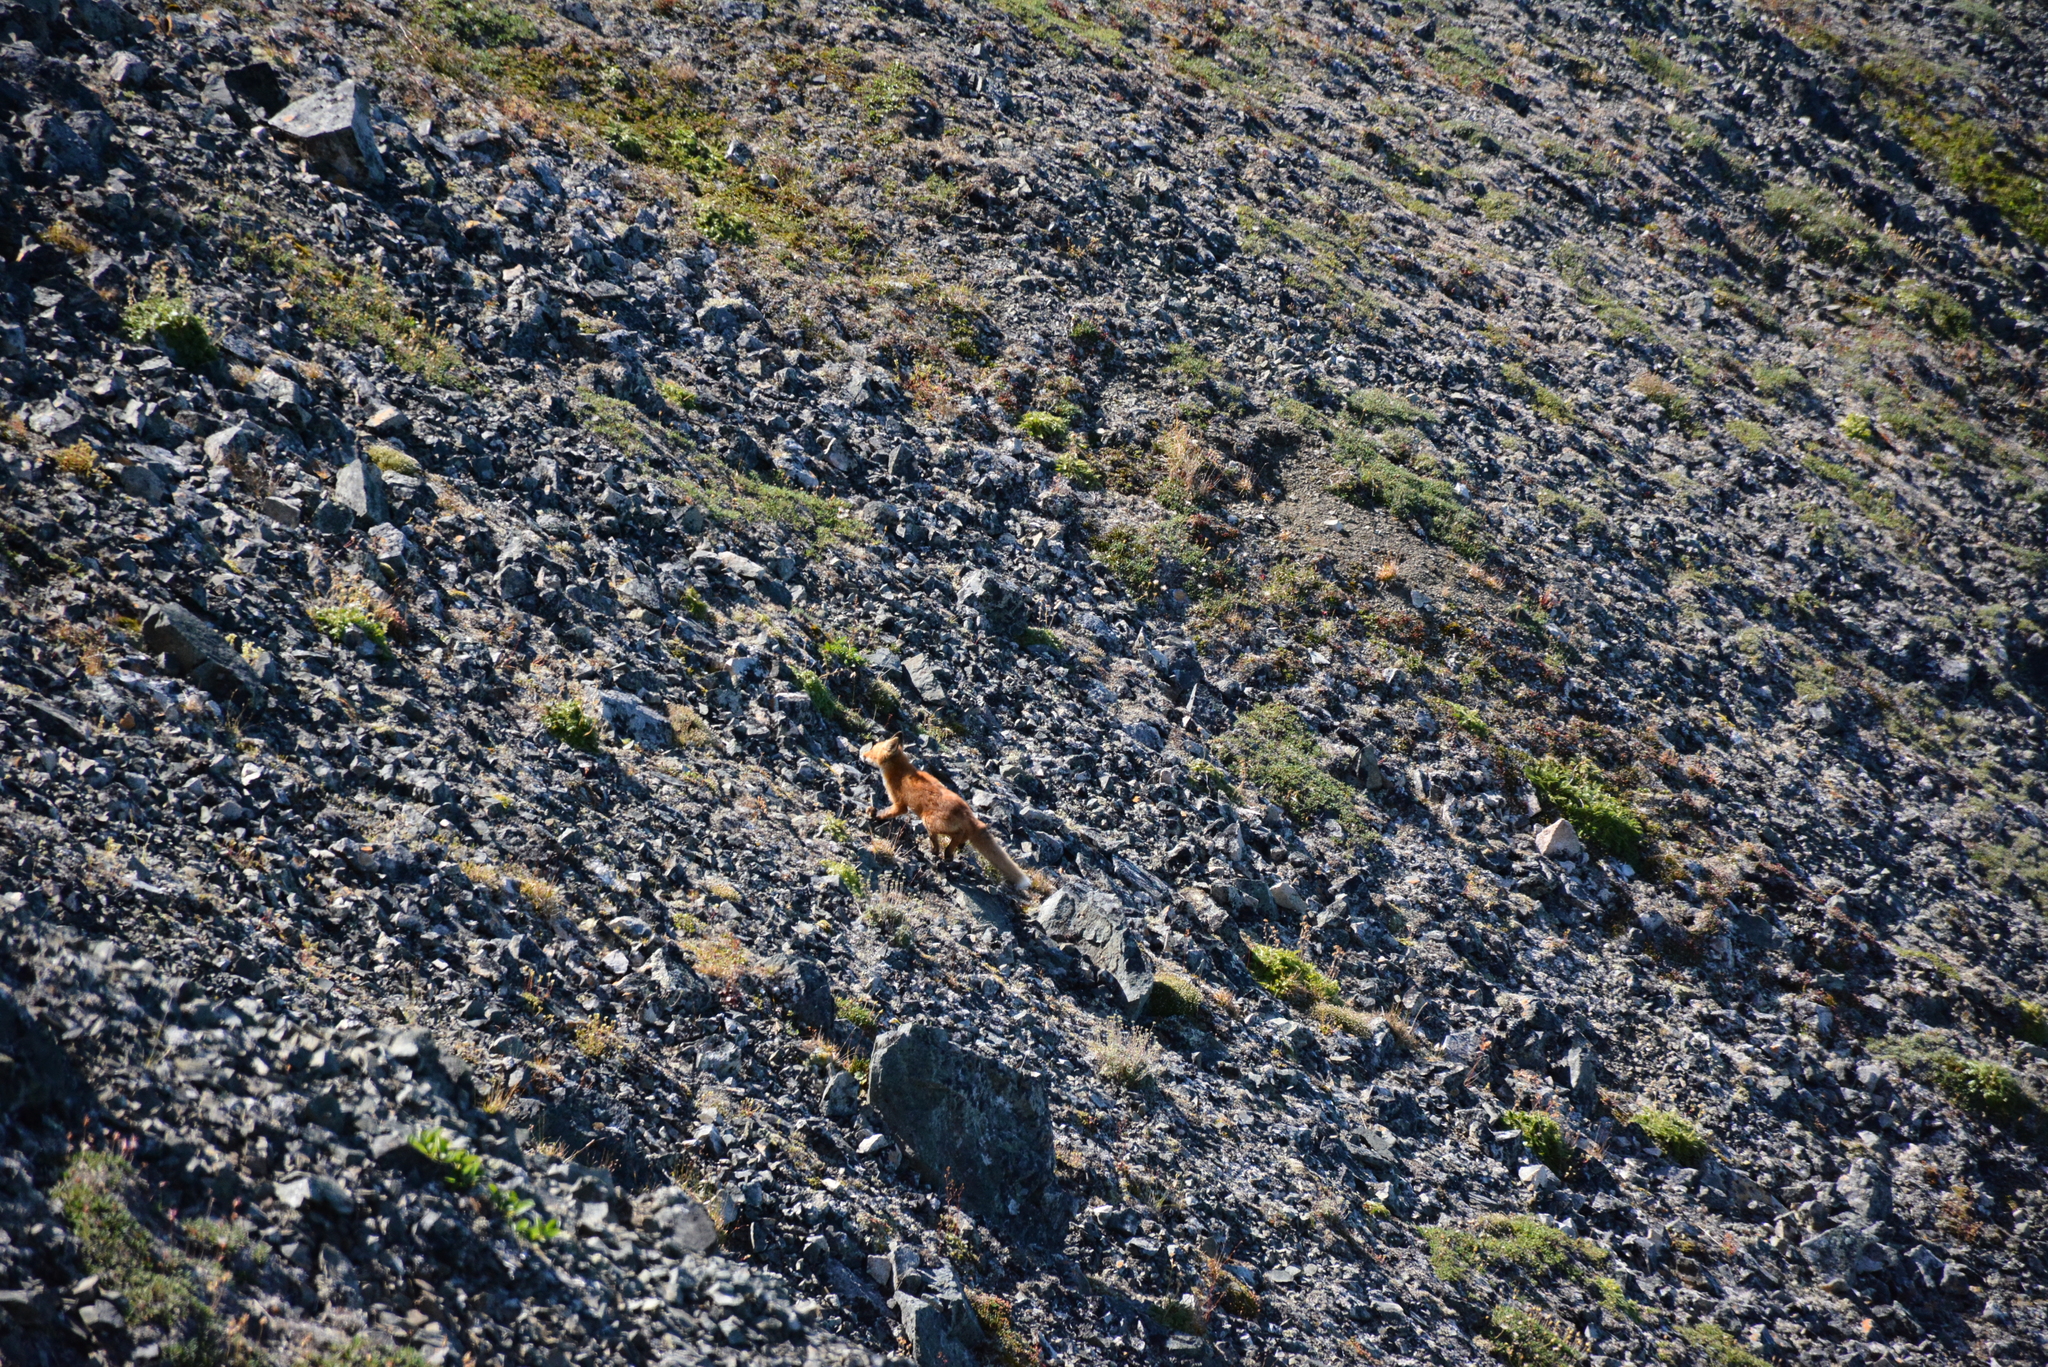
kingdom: Animalia
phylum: Chordata
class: Mammalia
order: Carnivora
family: Canidae
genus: Vulpes
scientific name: Vulpes vulpes
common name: Red fox
